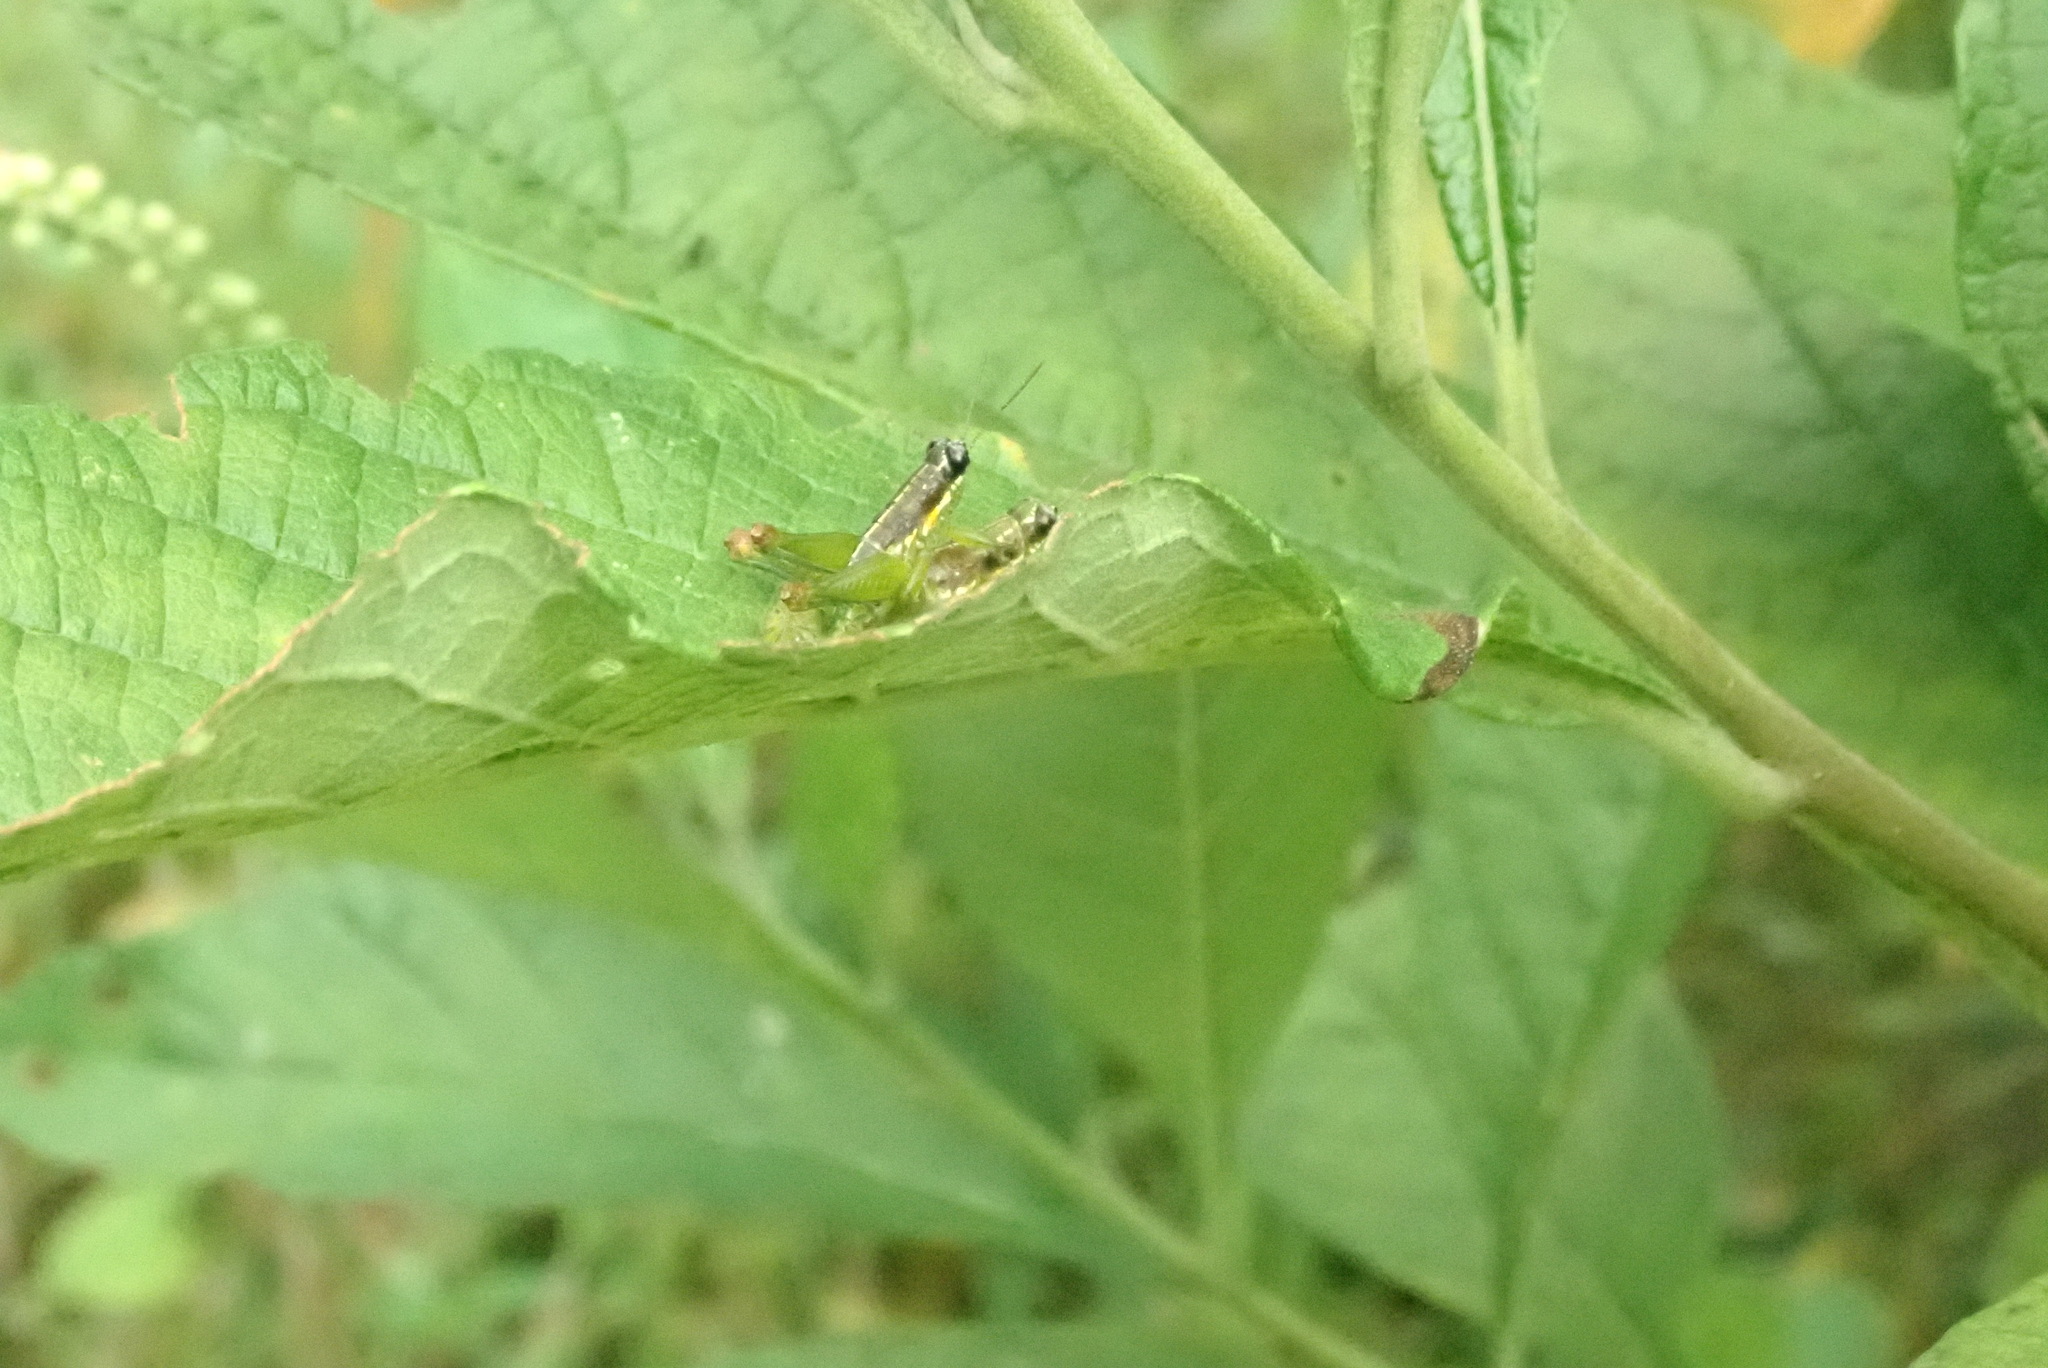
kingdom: Animalia
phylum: Arthropoda
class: Insecta
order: Orthoptera
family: Acrididae
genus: Liebermannacris
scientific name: Liebermannacris dorsualis
